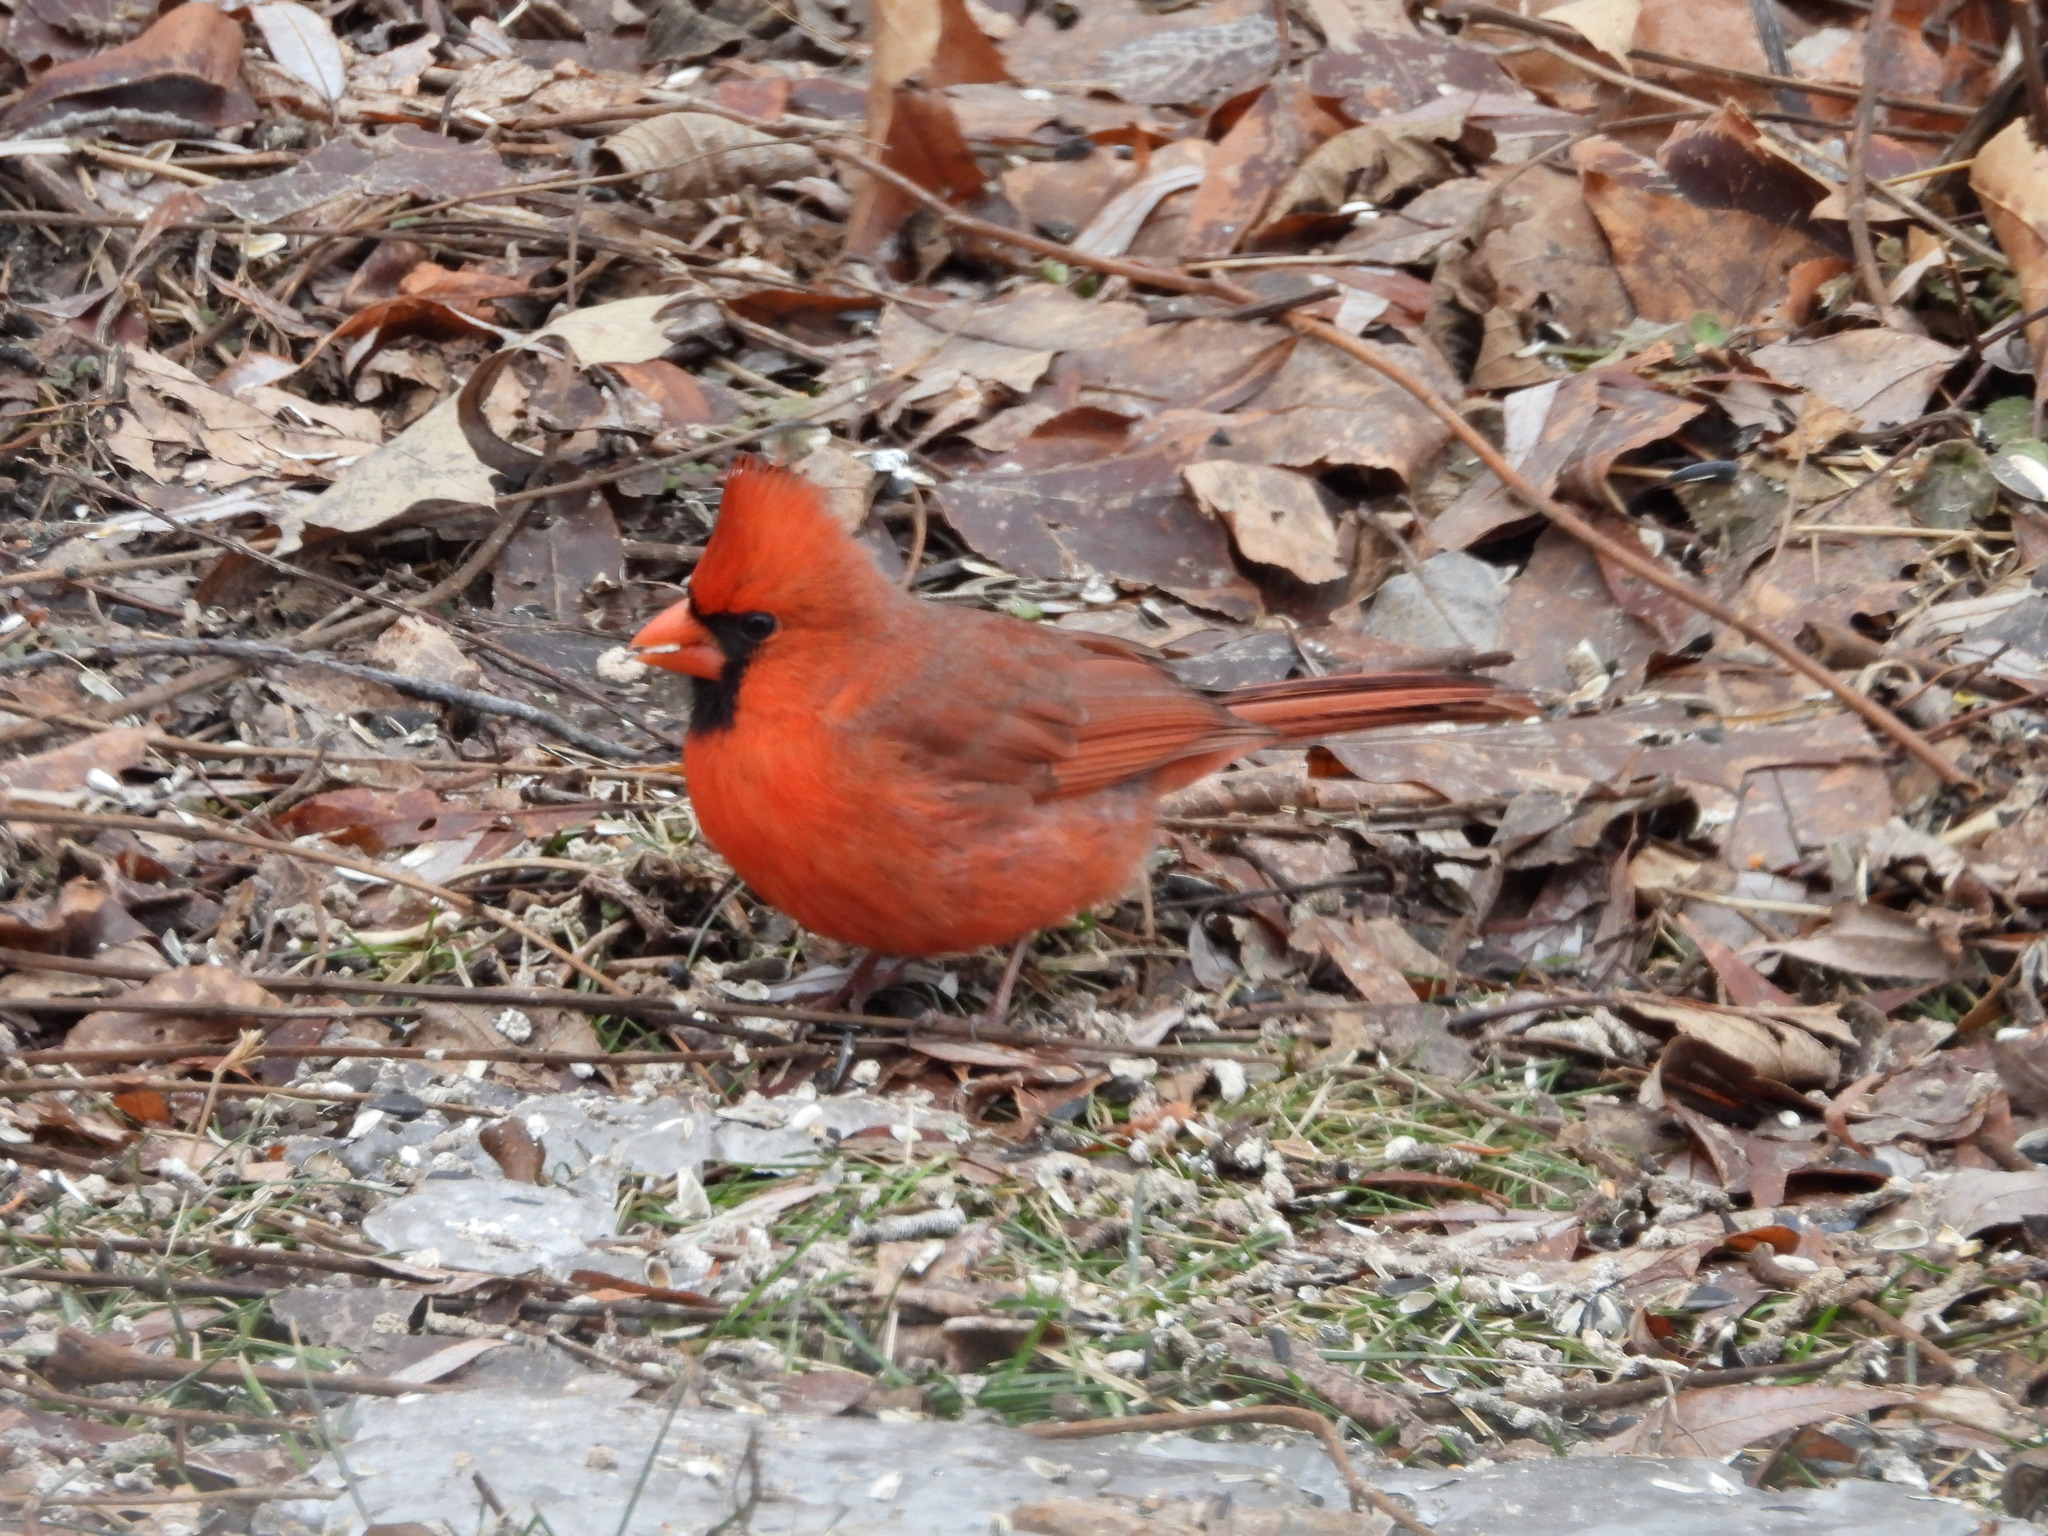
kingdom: Animalia
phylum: Chordata
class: Aves
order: Passeriformes
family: Cardinalidae
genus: Cardinalis
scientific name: Cardinalis cardinalis
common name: Northern cardinal
